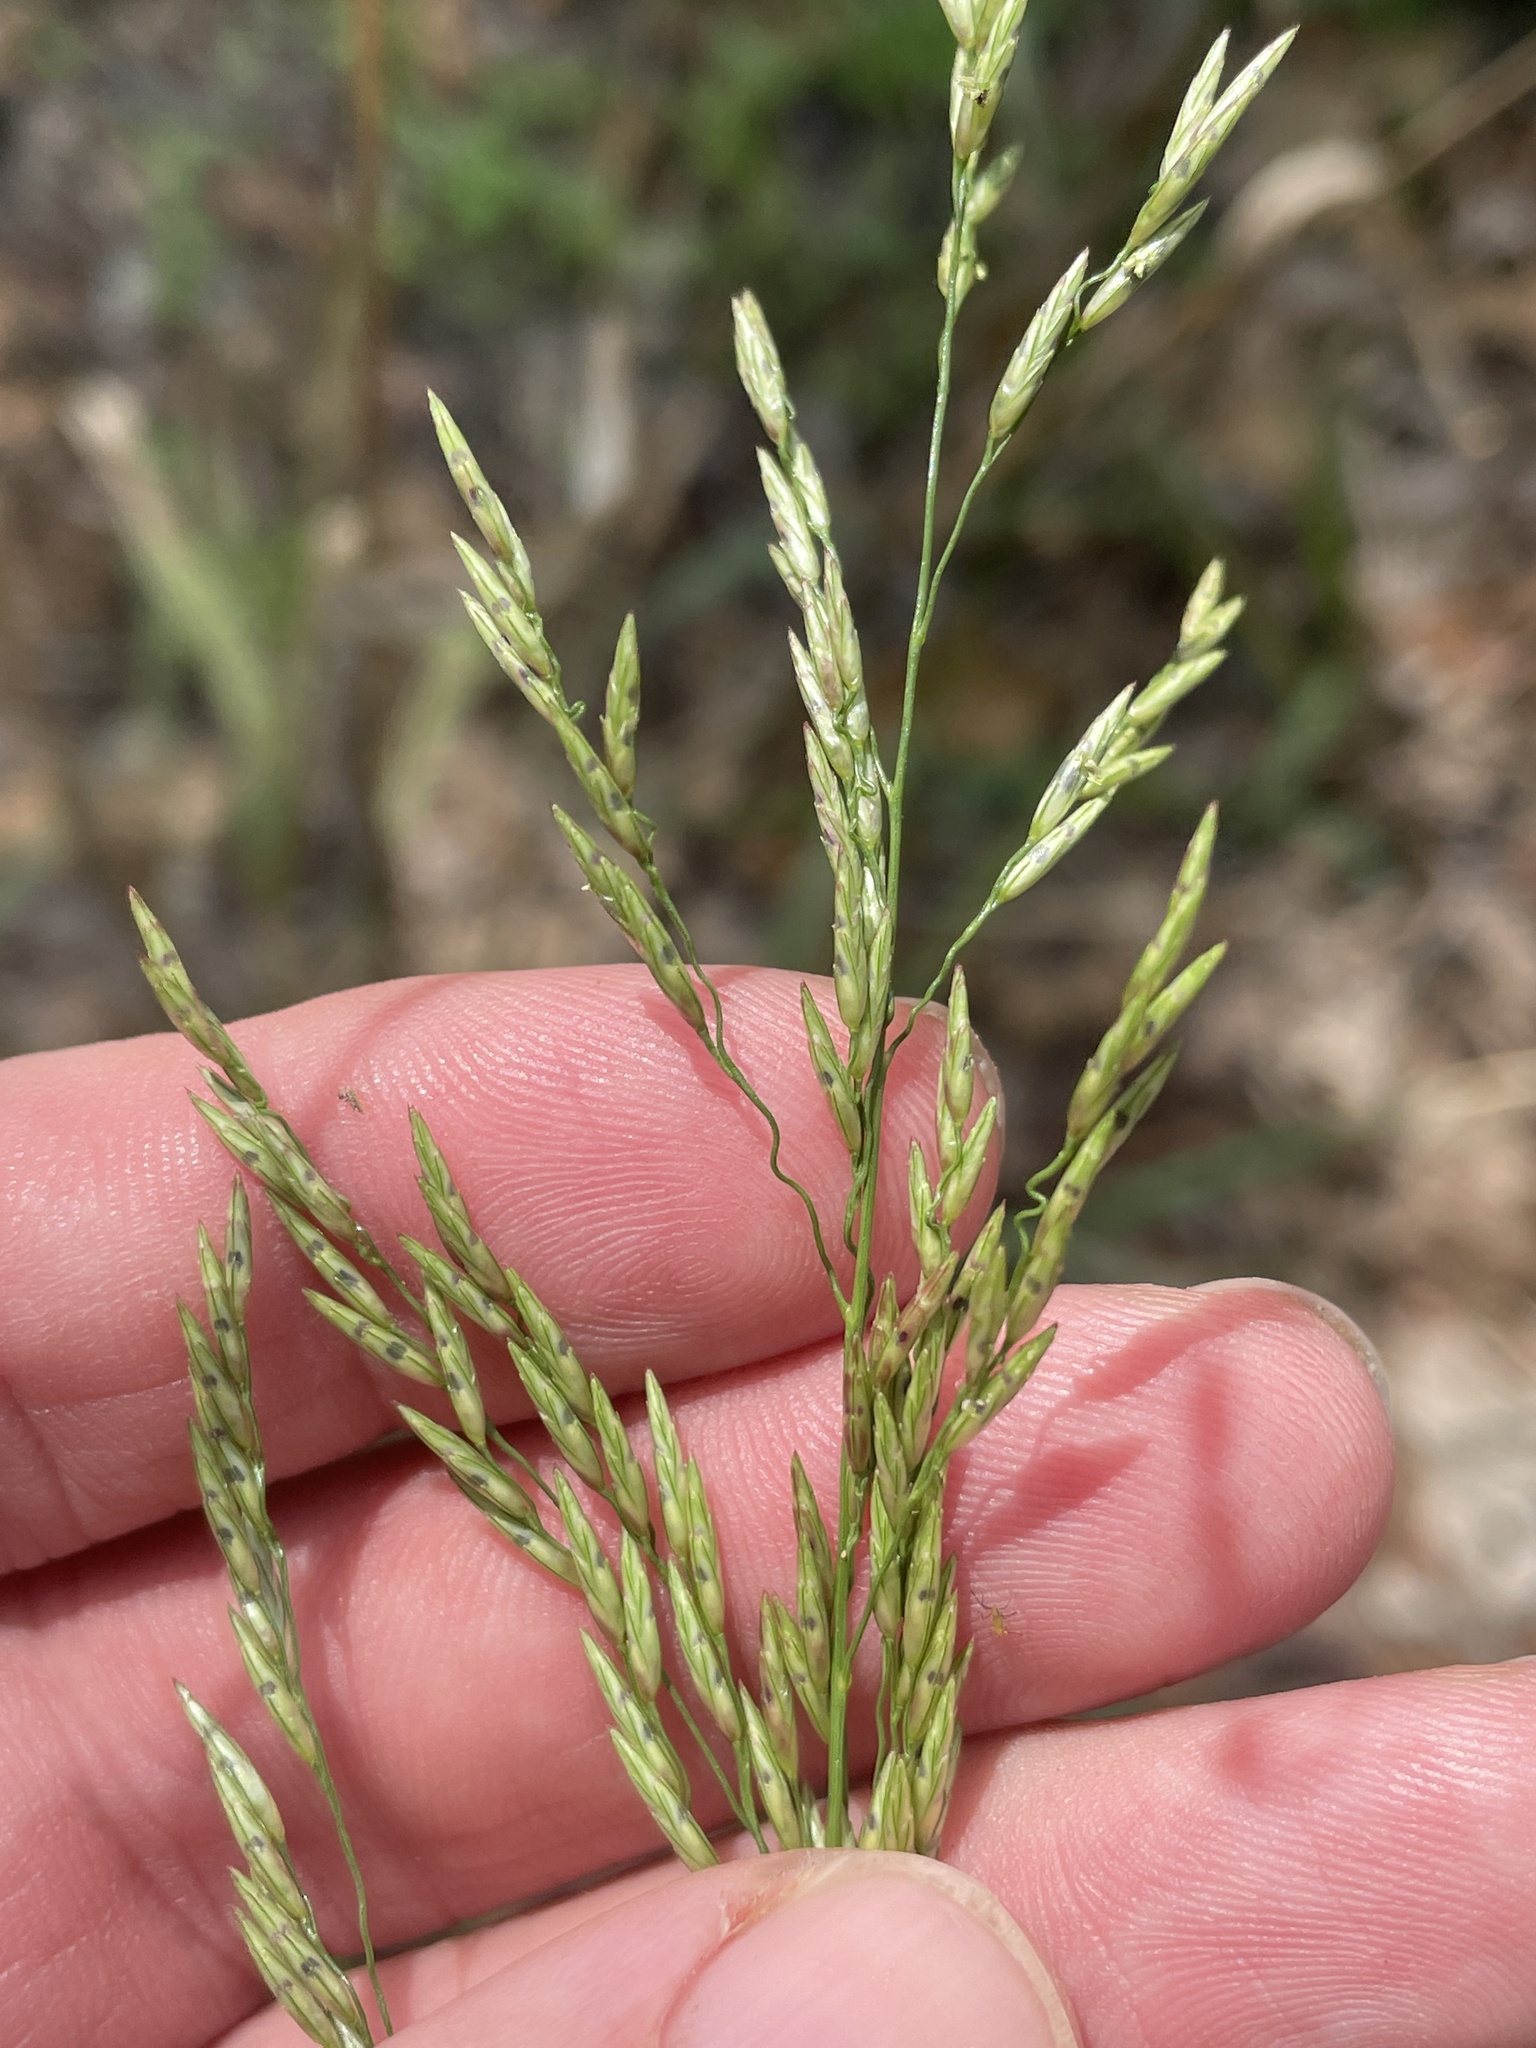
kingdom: Plantae
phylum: Tracheophyta
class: Liliopsida
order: Poales
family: Poaceae
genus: Tridens
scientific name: Tridens flavus
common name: Purpletop
